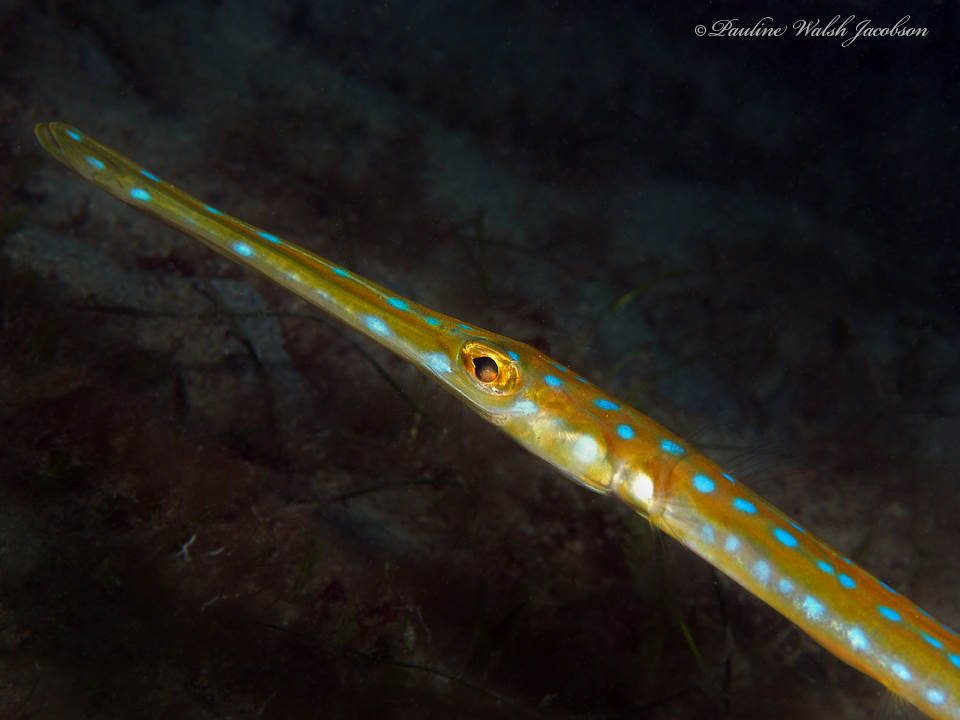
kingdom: Animalia
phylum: Chordata
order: Syngnathiformes
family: Fistulariidae
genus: Fistularia
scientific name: Fistularia tabacaria
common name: Blue-spotted cornetfish
